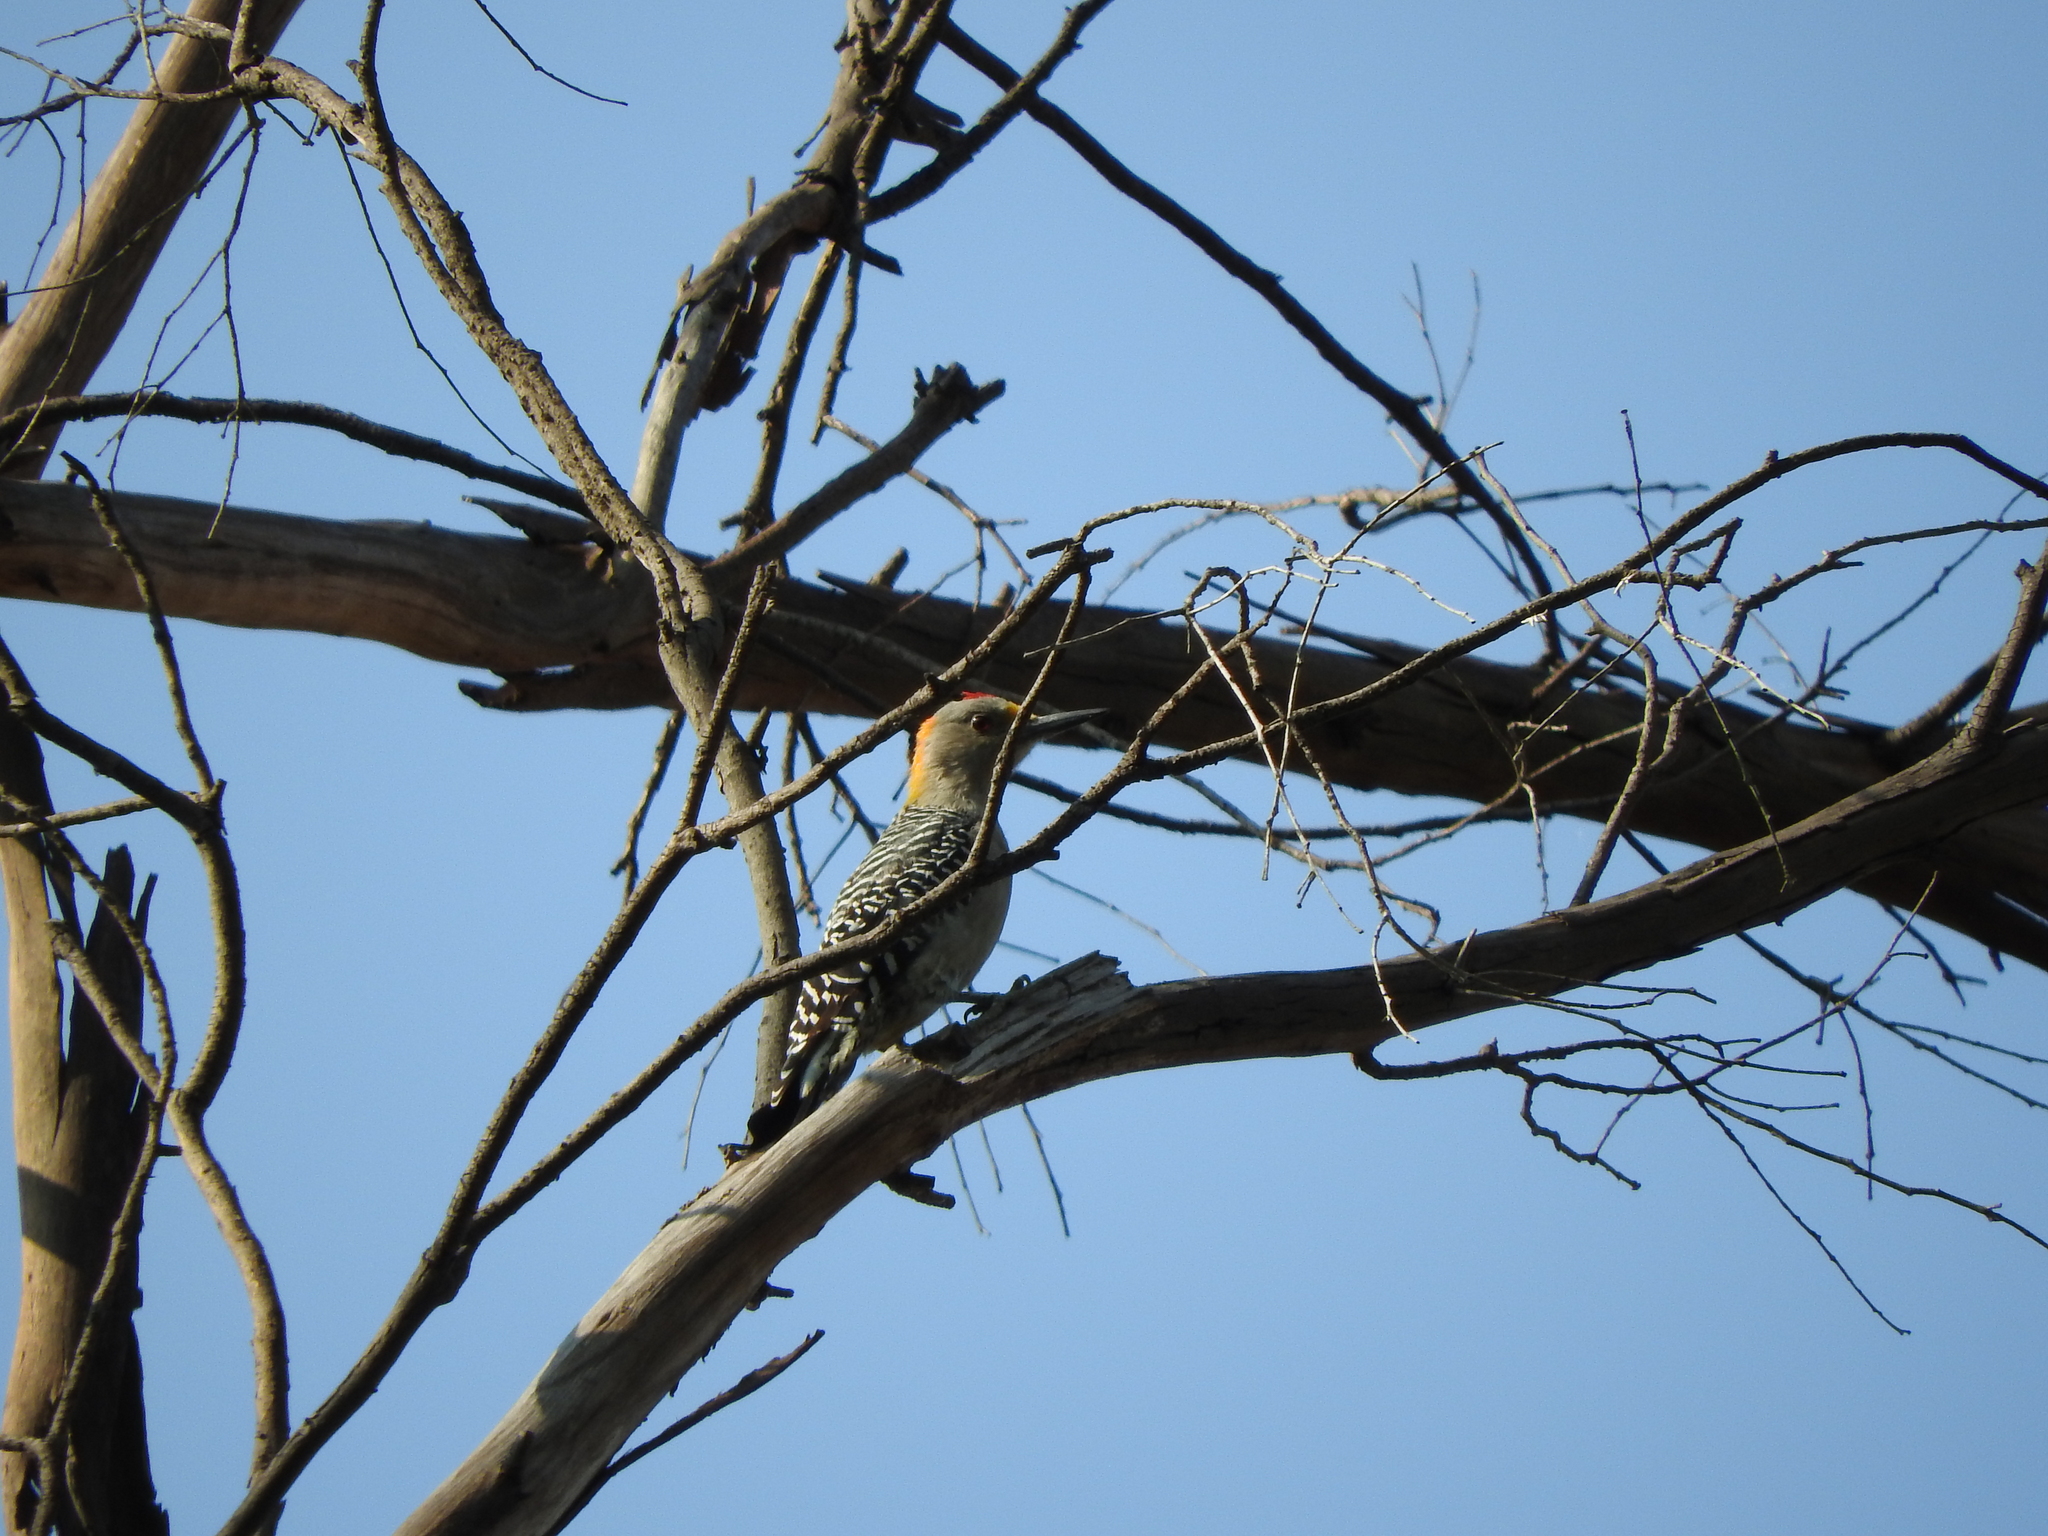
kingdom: Animalia
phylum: Chordata
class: Aves
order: Piciformes
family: Picidae
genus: Melanerpes
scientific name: Melanerpes aurifrons
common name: Golden-fronted woodpecker
